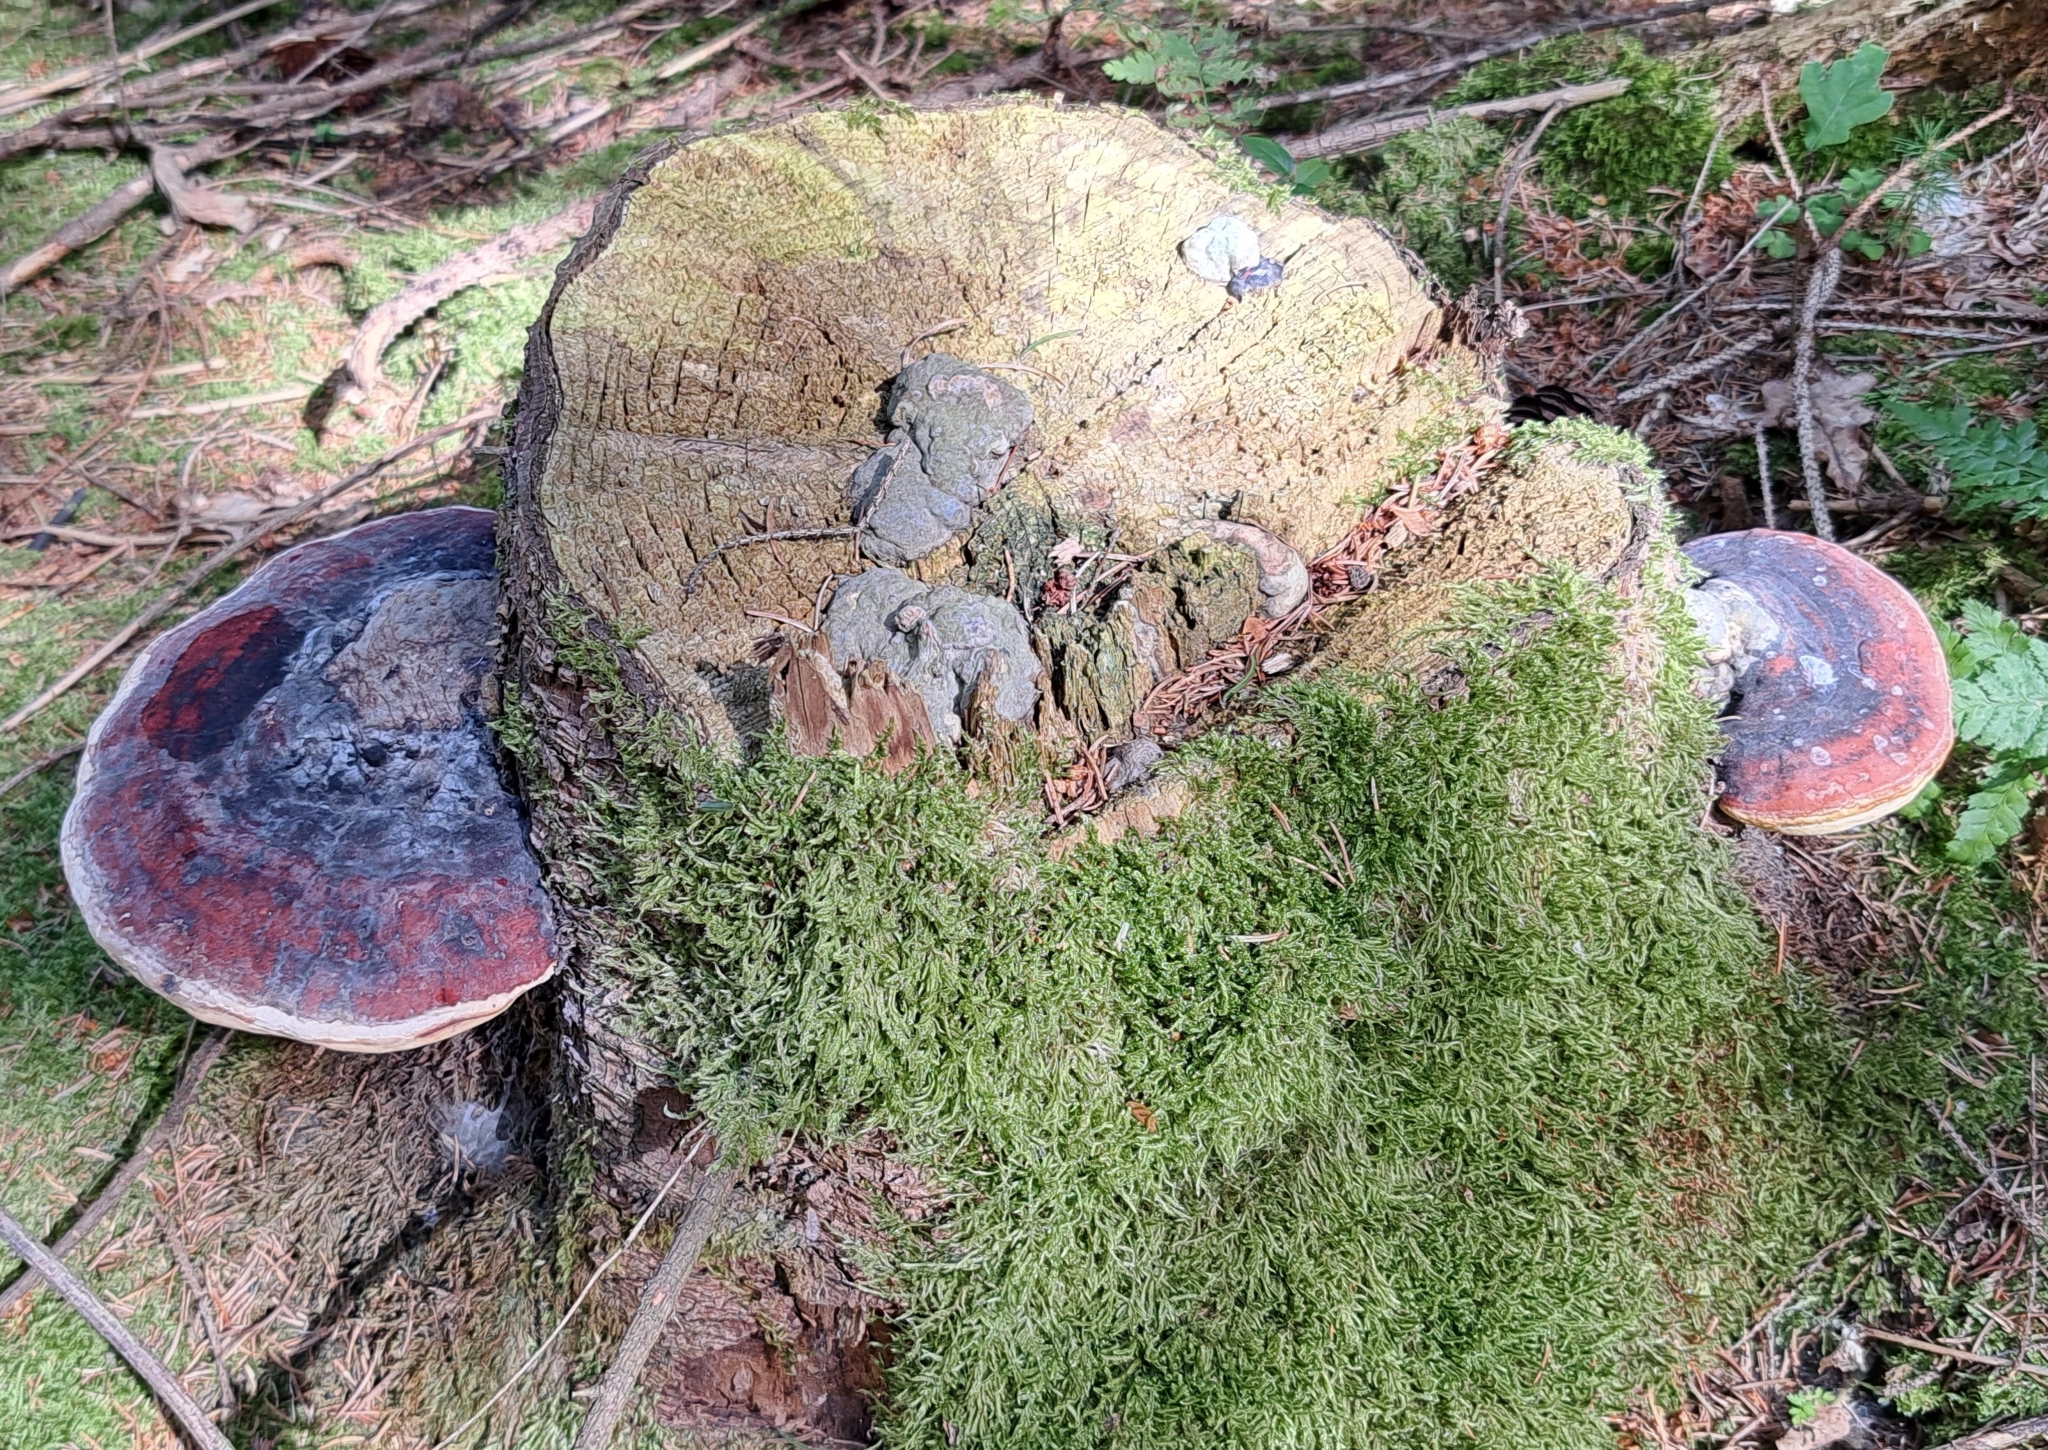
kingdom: Fungi
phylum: Basidiomycota
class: Agaricomycetes
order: Polyporales
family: Fomitopsidaceae
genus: Fomitopsis
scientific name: Fomitopsis pinicola
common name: Red-belted bracket
